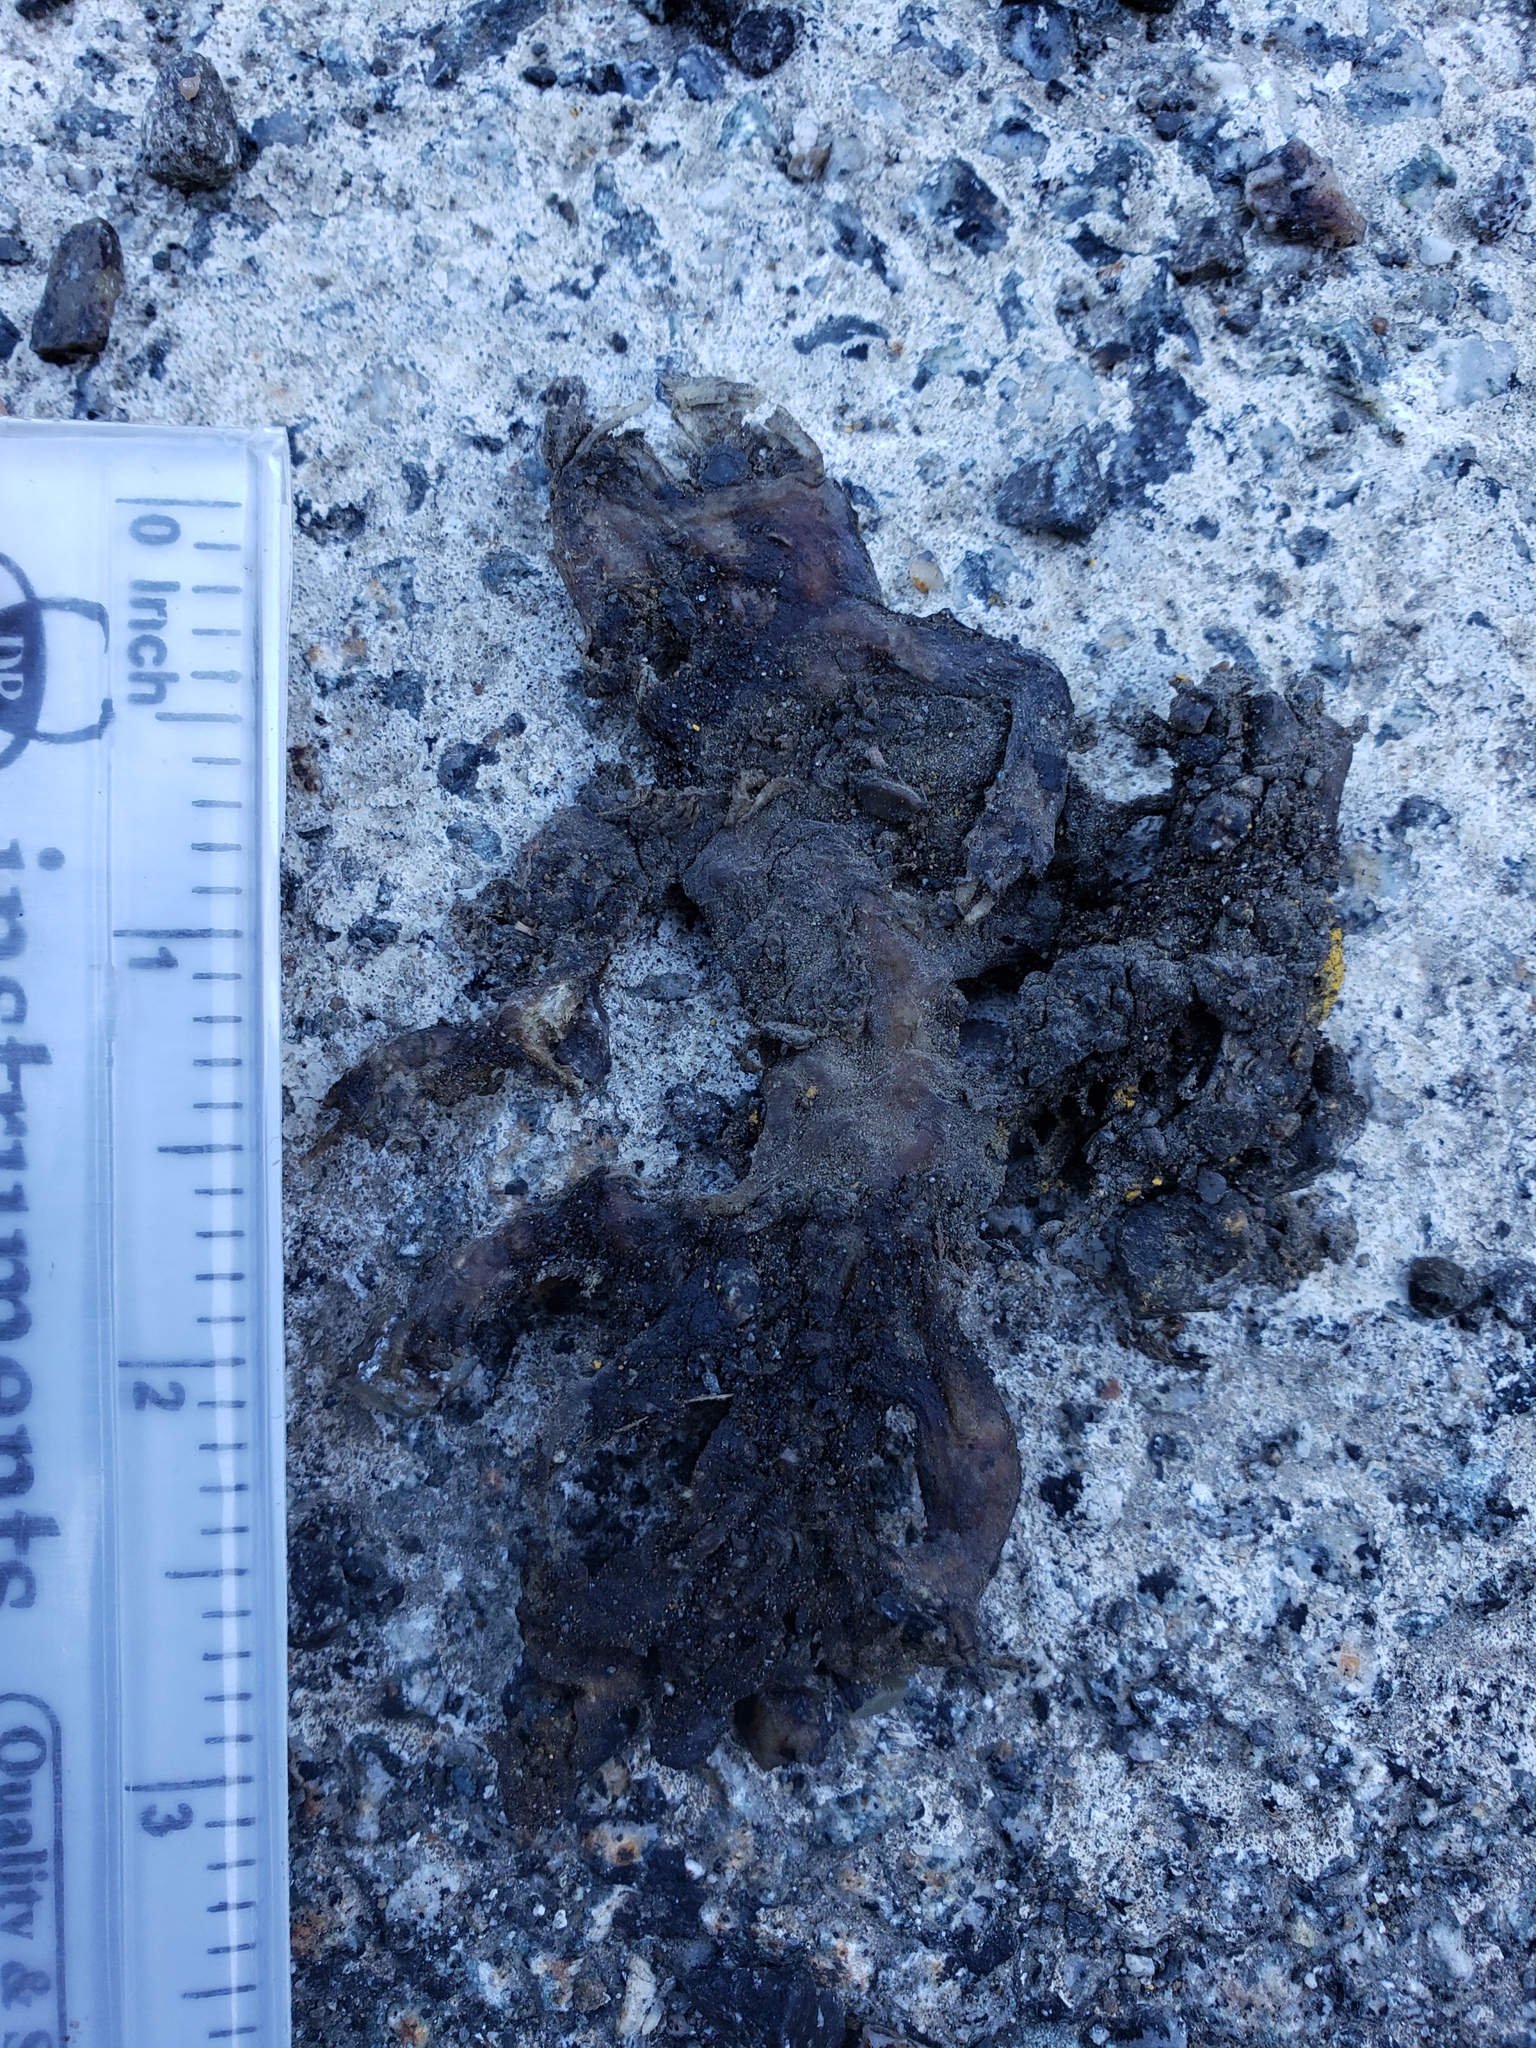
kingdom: Animalia
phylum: Chordata
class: Amphibia
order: Caudata
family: Salamandridae
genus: Taricha
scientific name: Taricha
